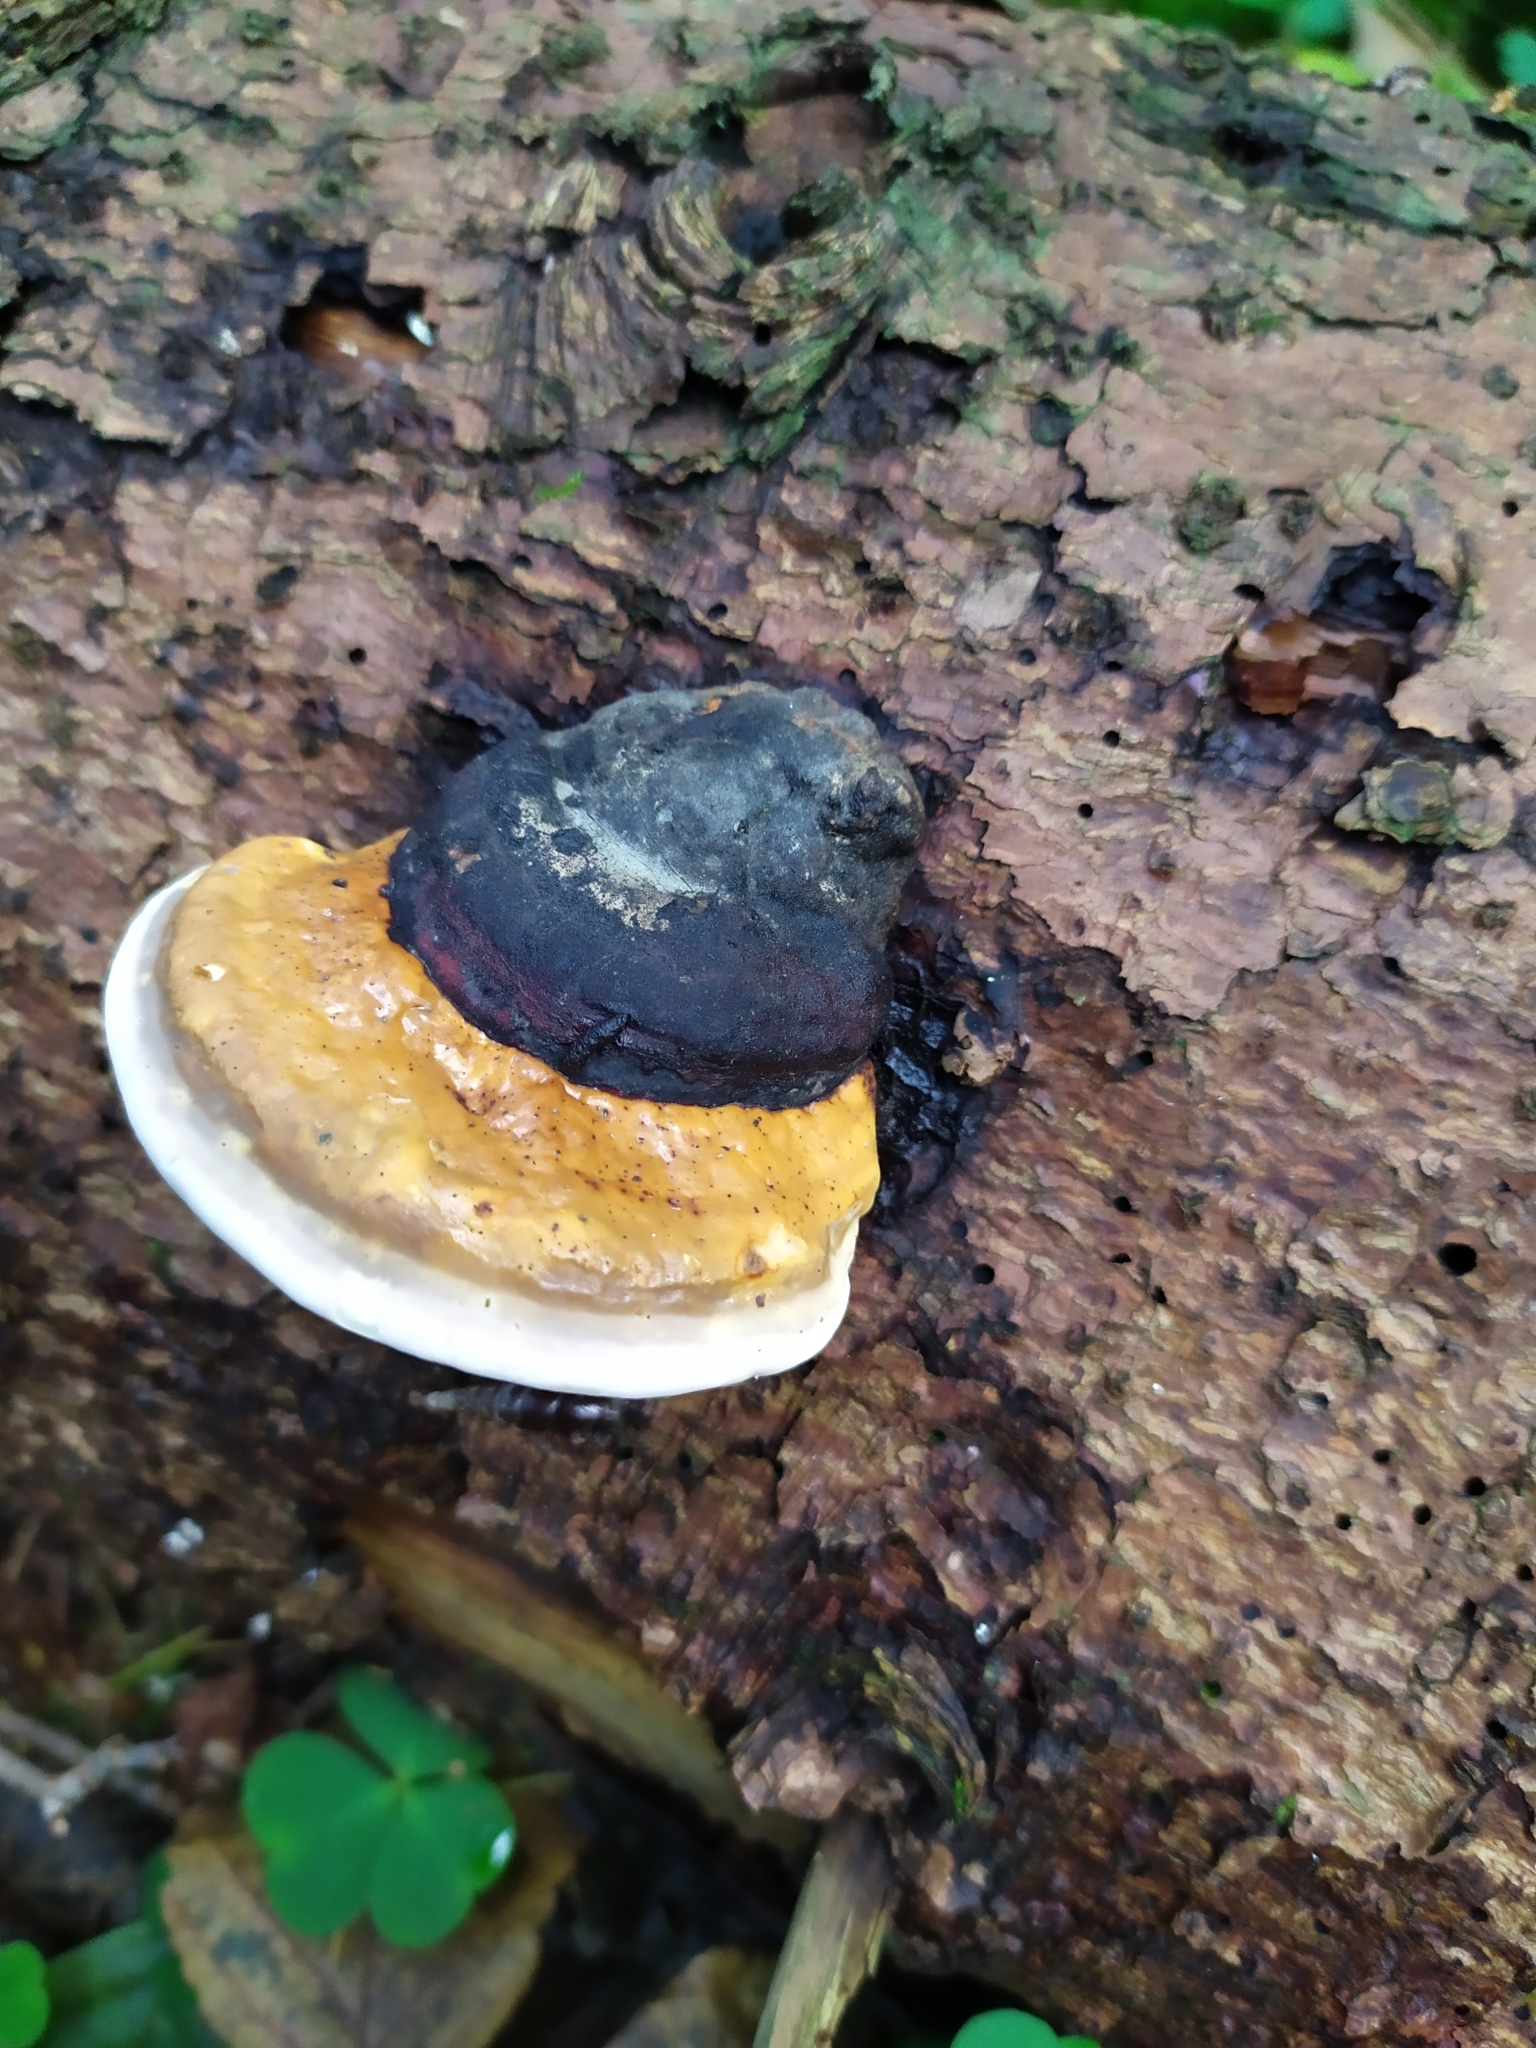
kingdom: Fungi
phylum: Basidiomycota
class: Agaricomycetes
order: Polyporales
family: Fomitopsidaceae
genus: Fomitopsis
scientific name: Fomitopsis pinicola
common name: Red-belted bracket
